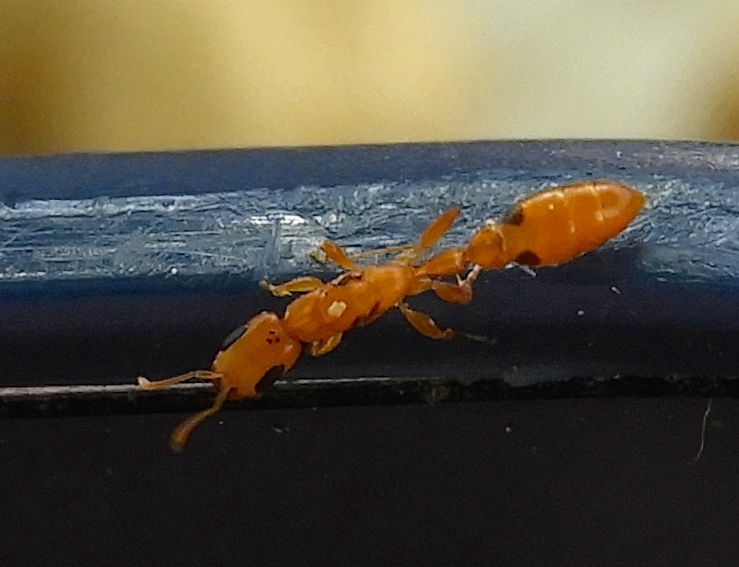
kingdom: Animalia
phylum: Arthropoda
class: Insecta
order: Hymenoptera
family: Formicidae
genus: Pseudomyrmex
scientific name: Pseudomyrmex simplex
